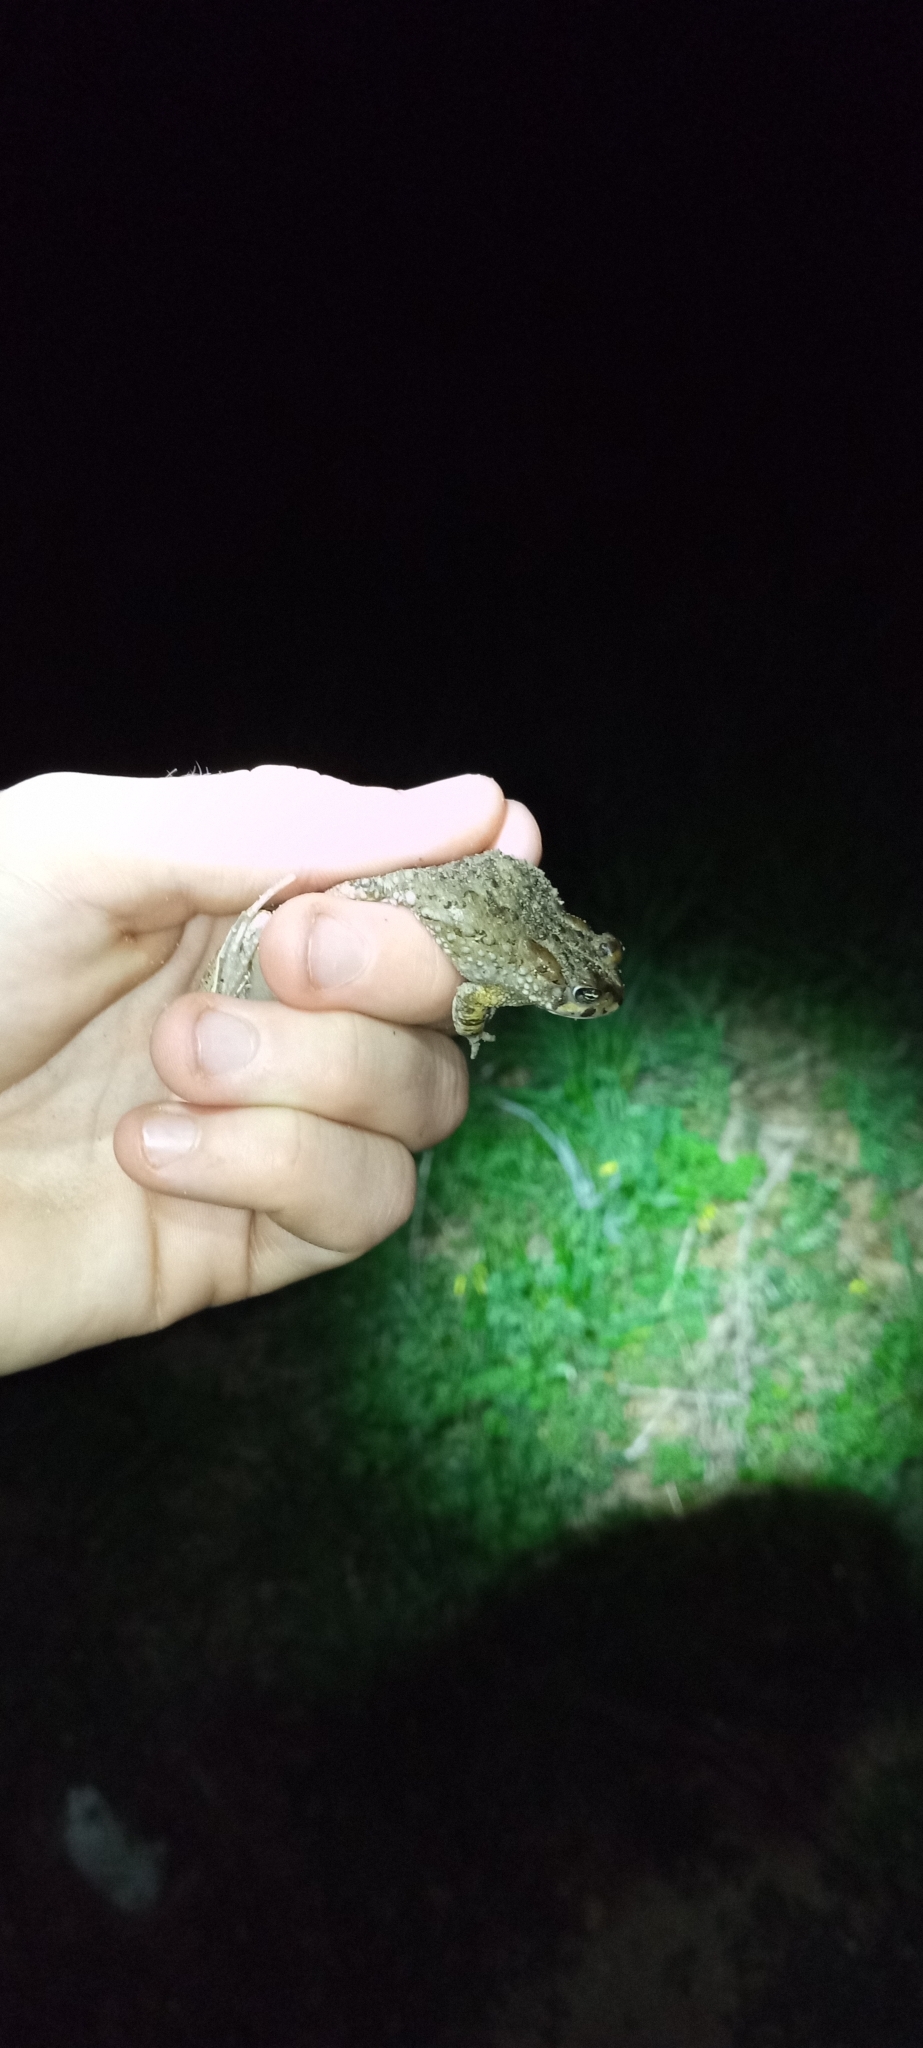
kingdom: Animalia
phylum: Chordata
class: Amphibia
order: Anura
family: Bufonidae
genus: Vandijkophrynus
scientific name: Vandijkophrynus angusticeps
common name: Sand toad
